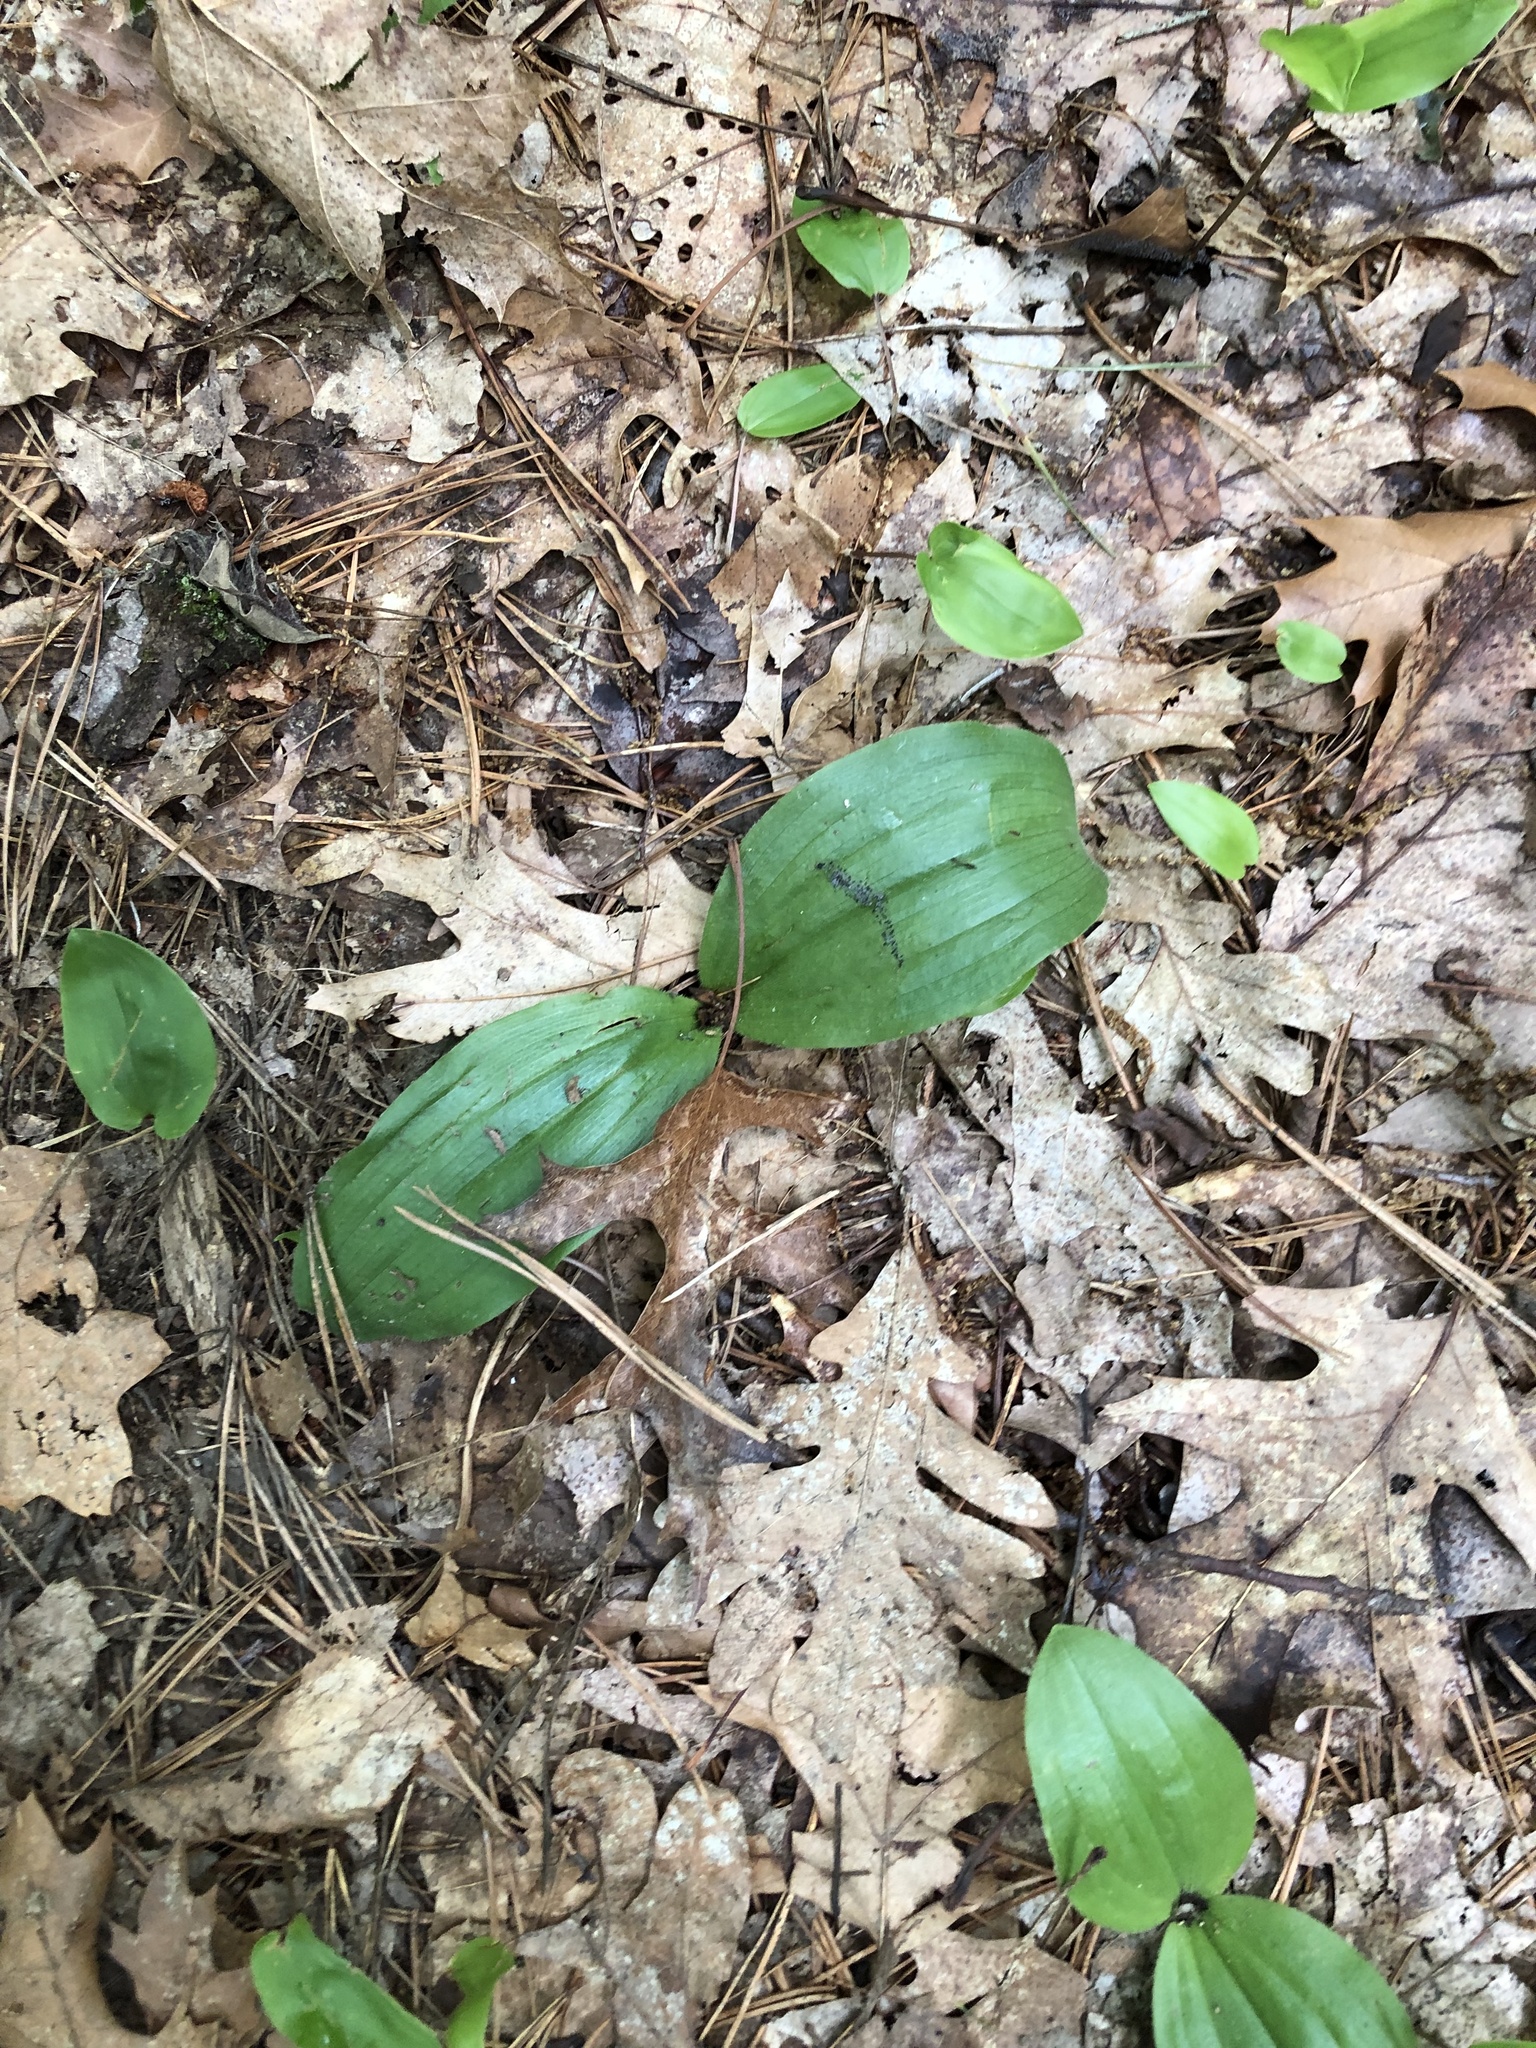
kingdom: Plantae
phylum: Tracheophyta
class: Liliopsida
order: Asparagales
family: Orchidaceae
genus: Cypripedium
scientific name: Cypripedium acaule
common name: Pink lady's-slipper
